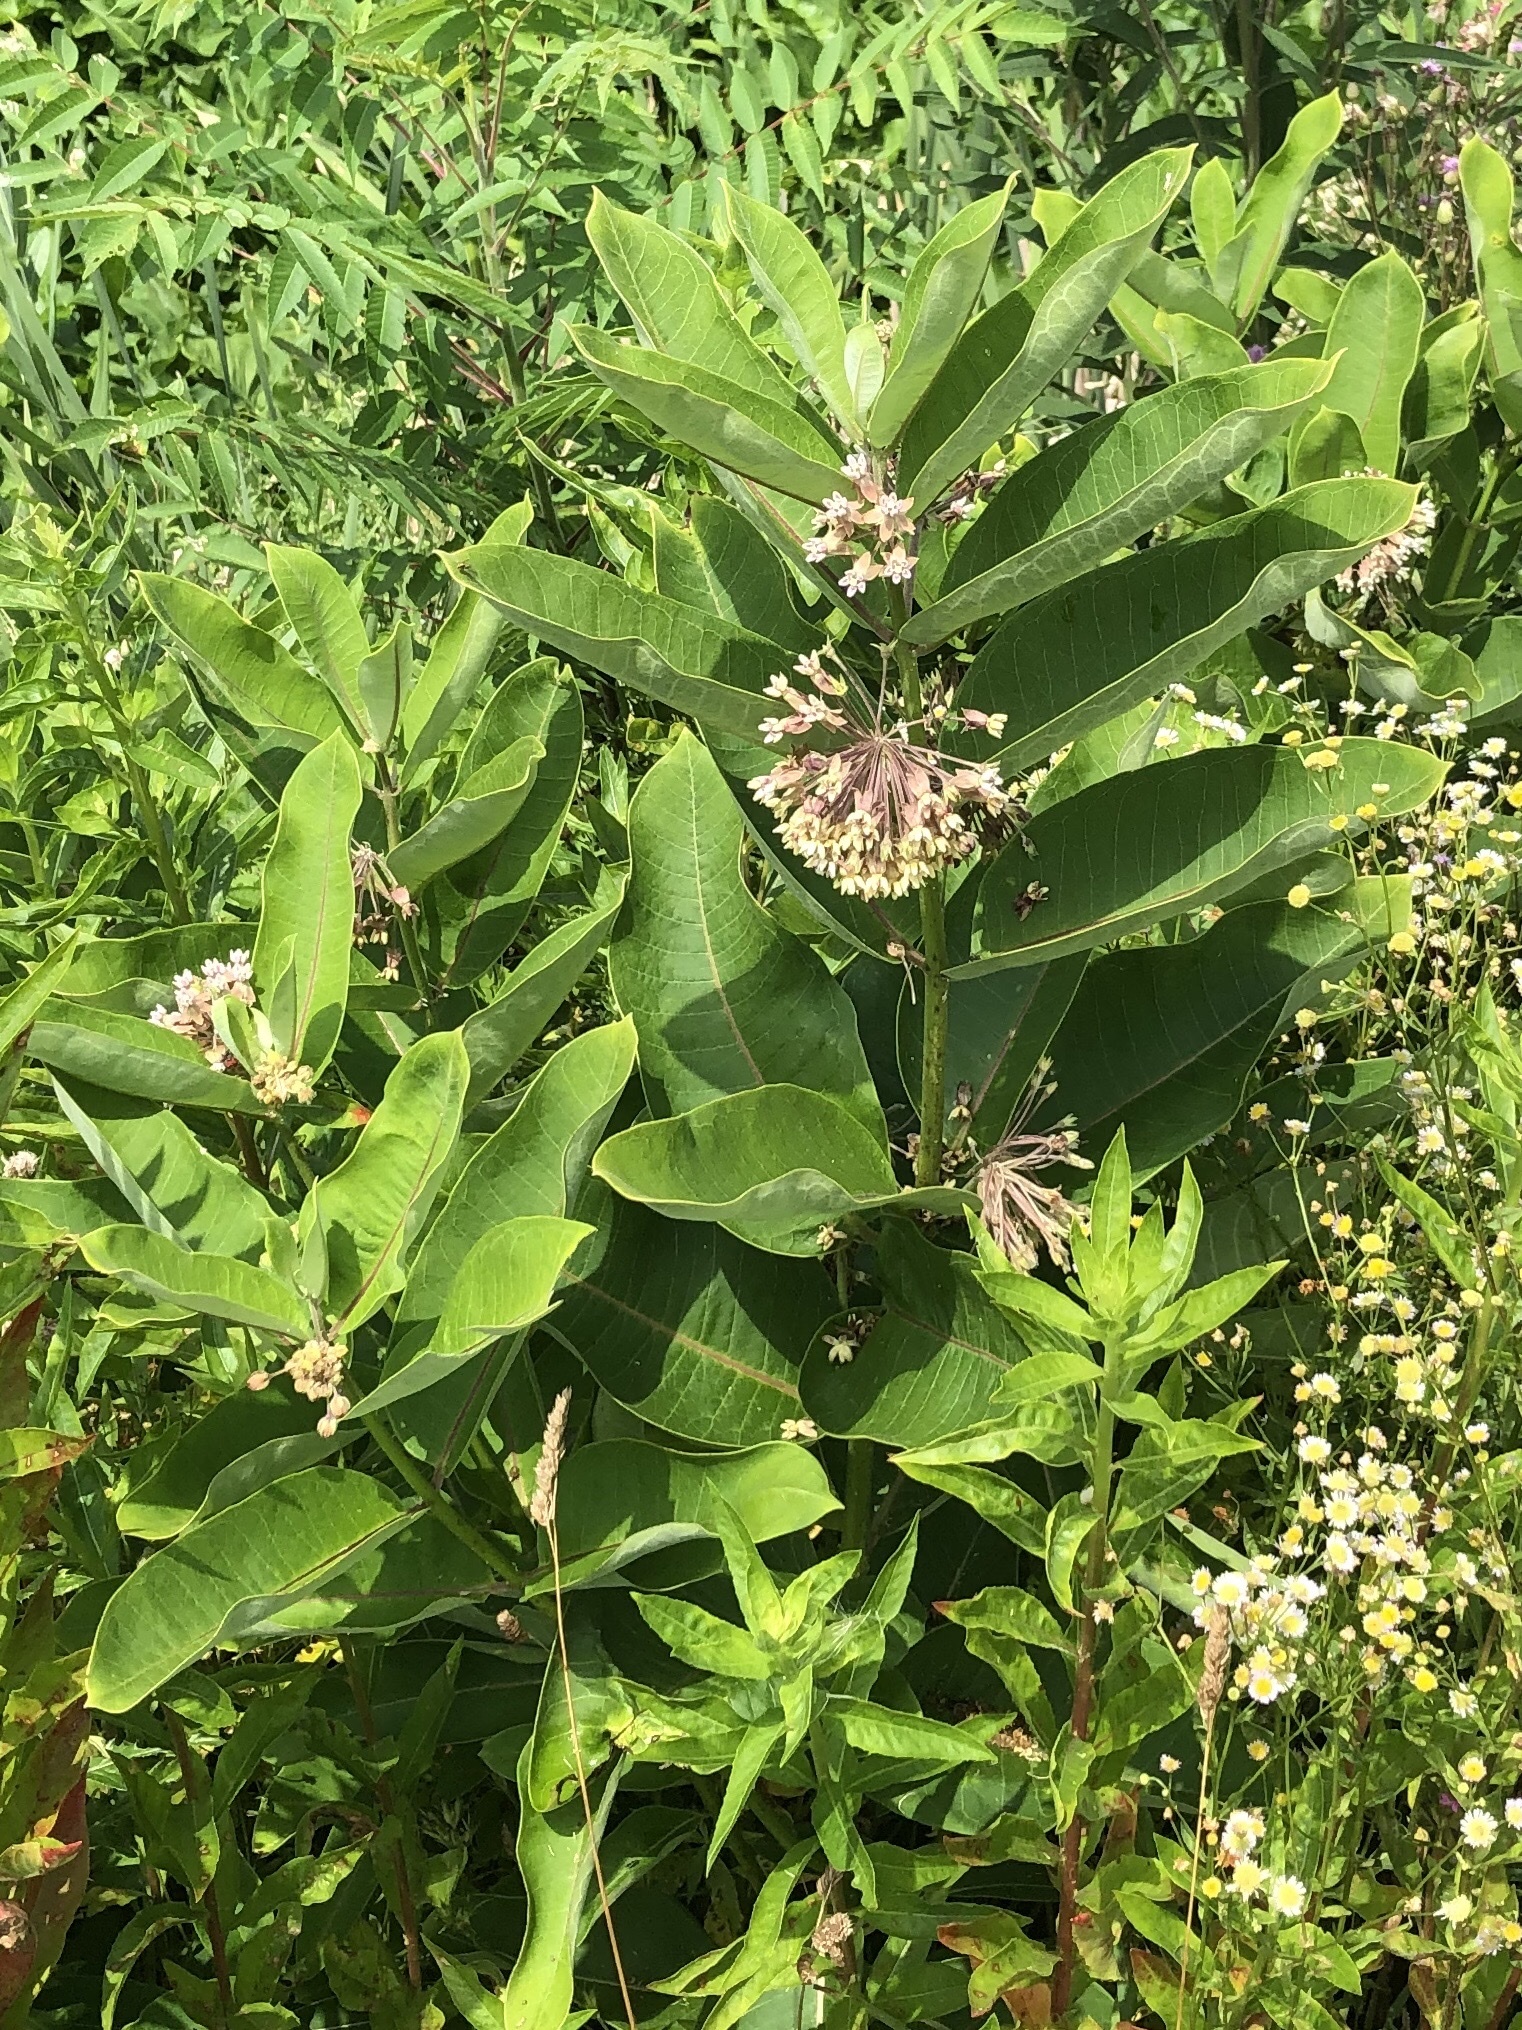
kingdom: Plantae
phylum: Tracheophyta
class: Magnoliopsida
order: Gentianales
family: Apocynaceae
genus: Asclepias
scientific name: Asclepias syriaca
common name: Common milkweed
